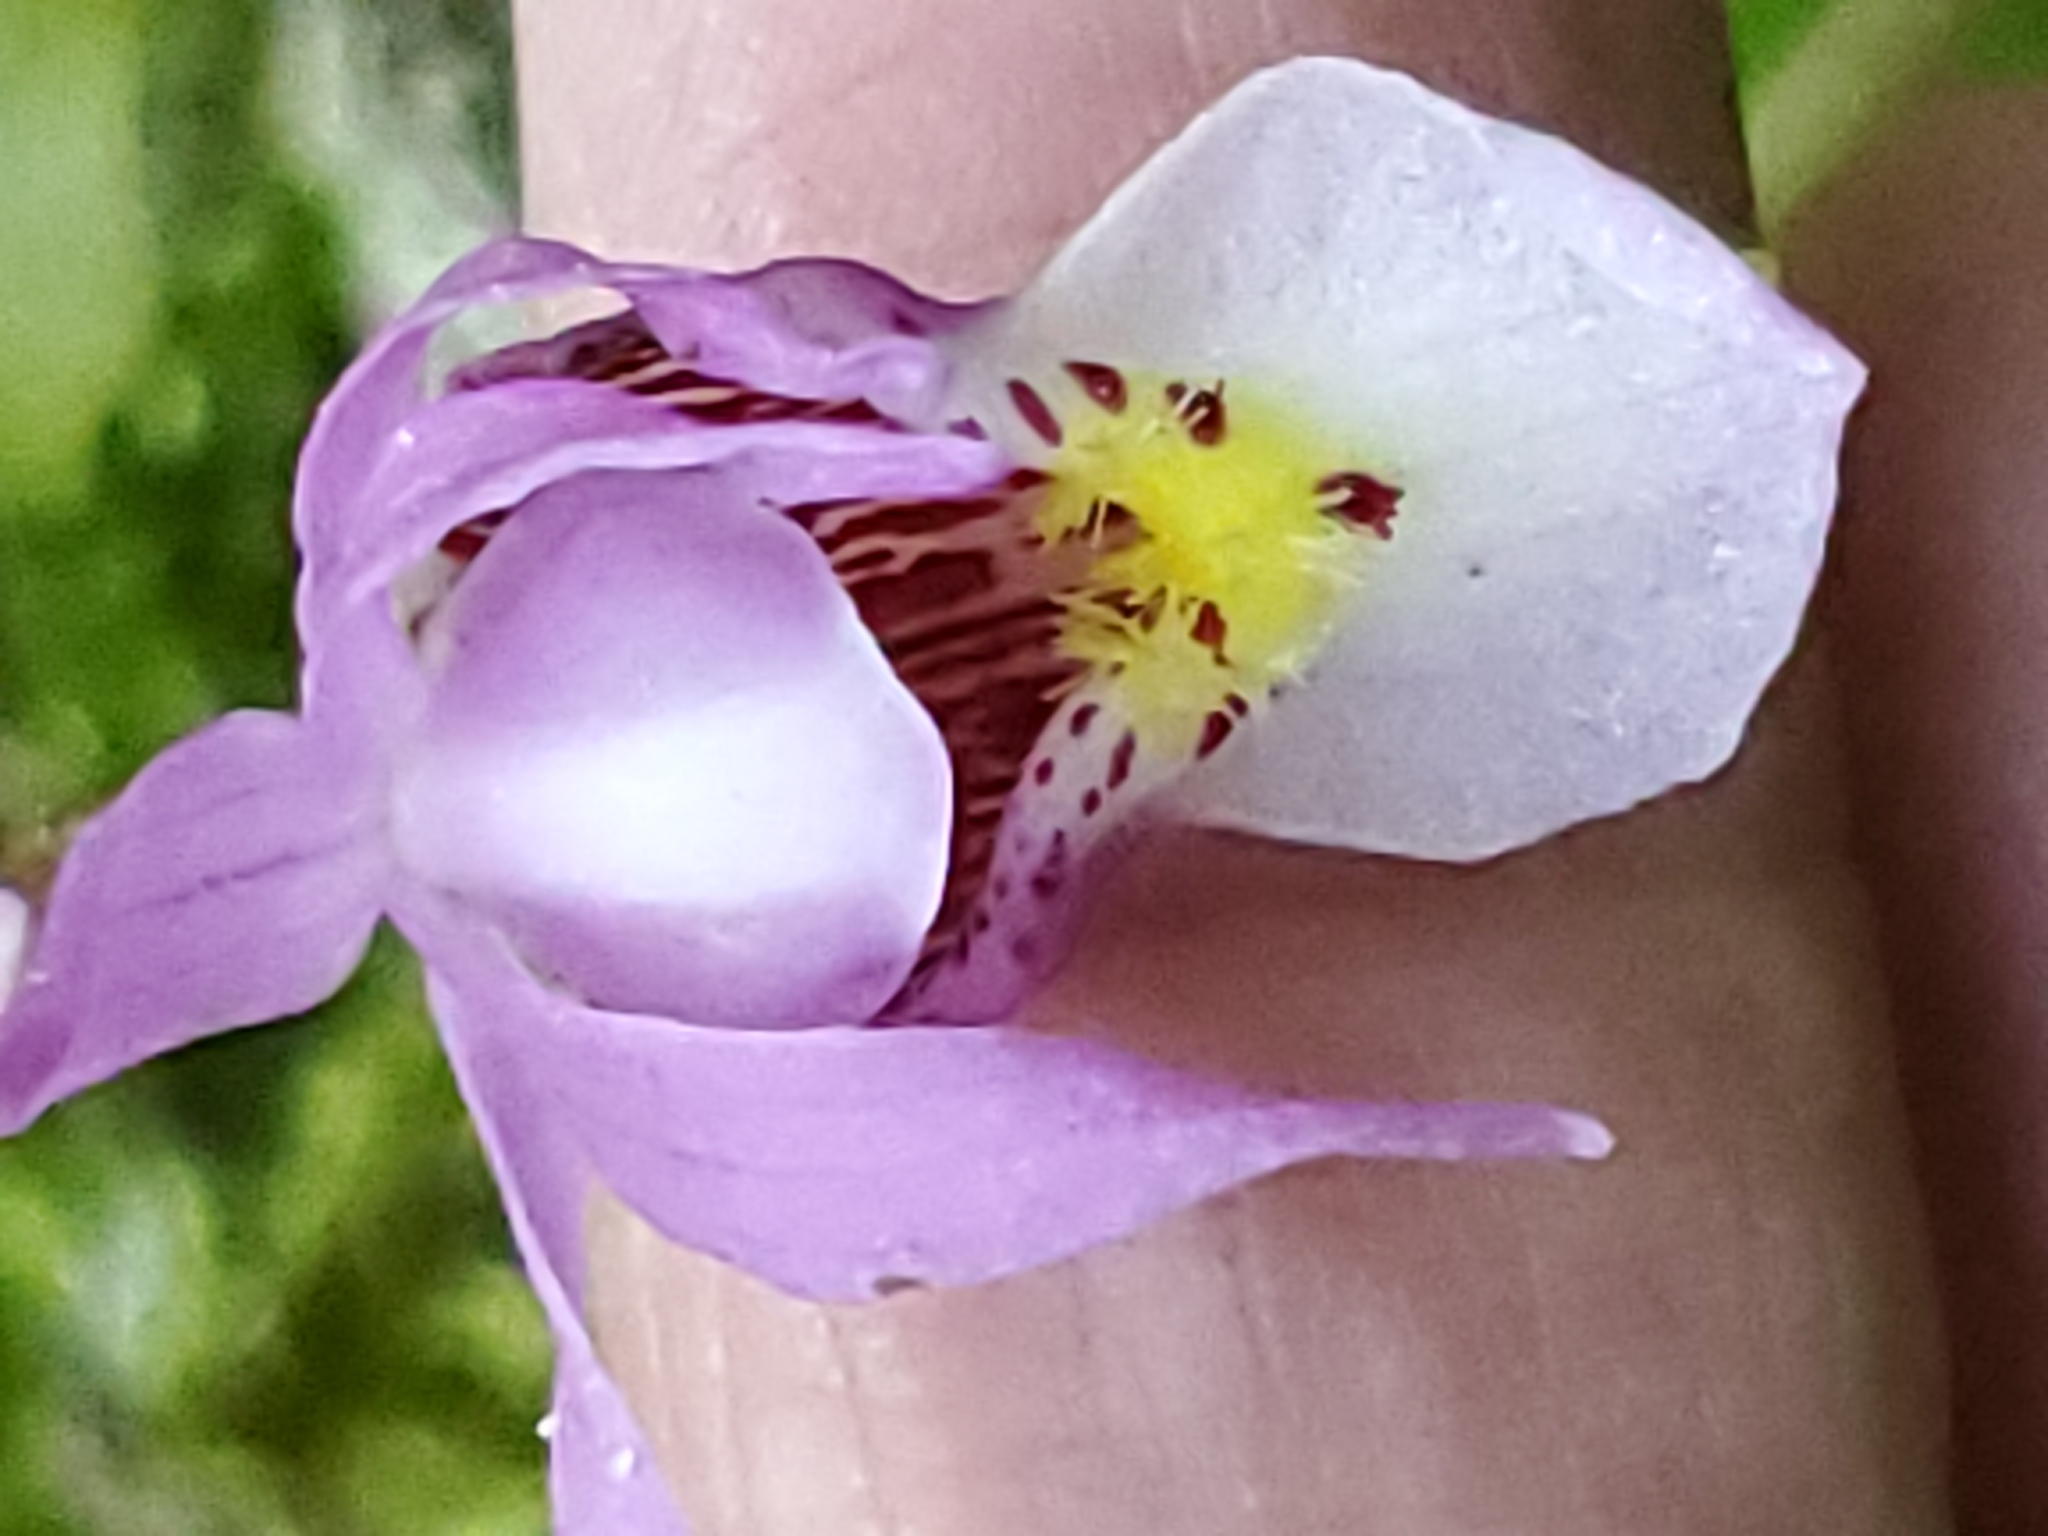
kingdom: Plantae
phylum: Tracheophyta
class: Liliopsida
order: Asparagales
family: Orchidaceae
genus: Calypso
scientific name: Calypso bulbosa
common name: Calypso
